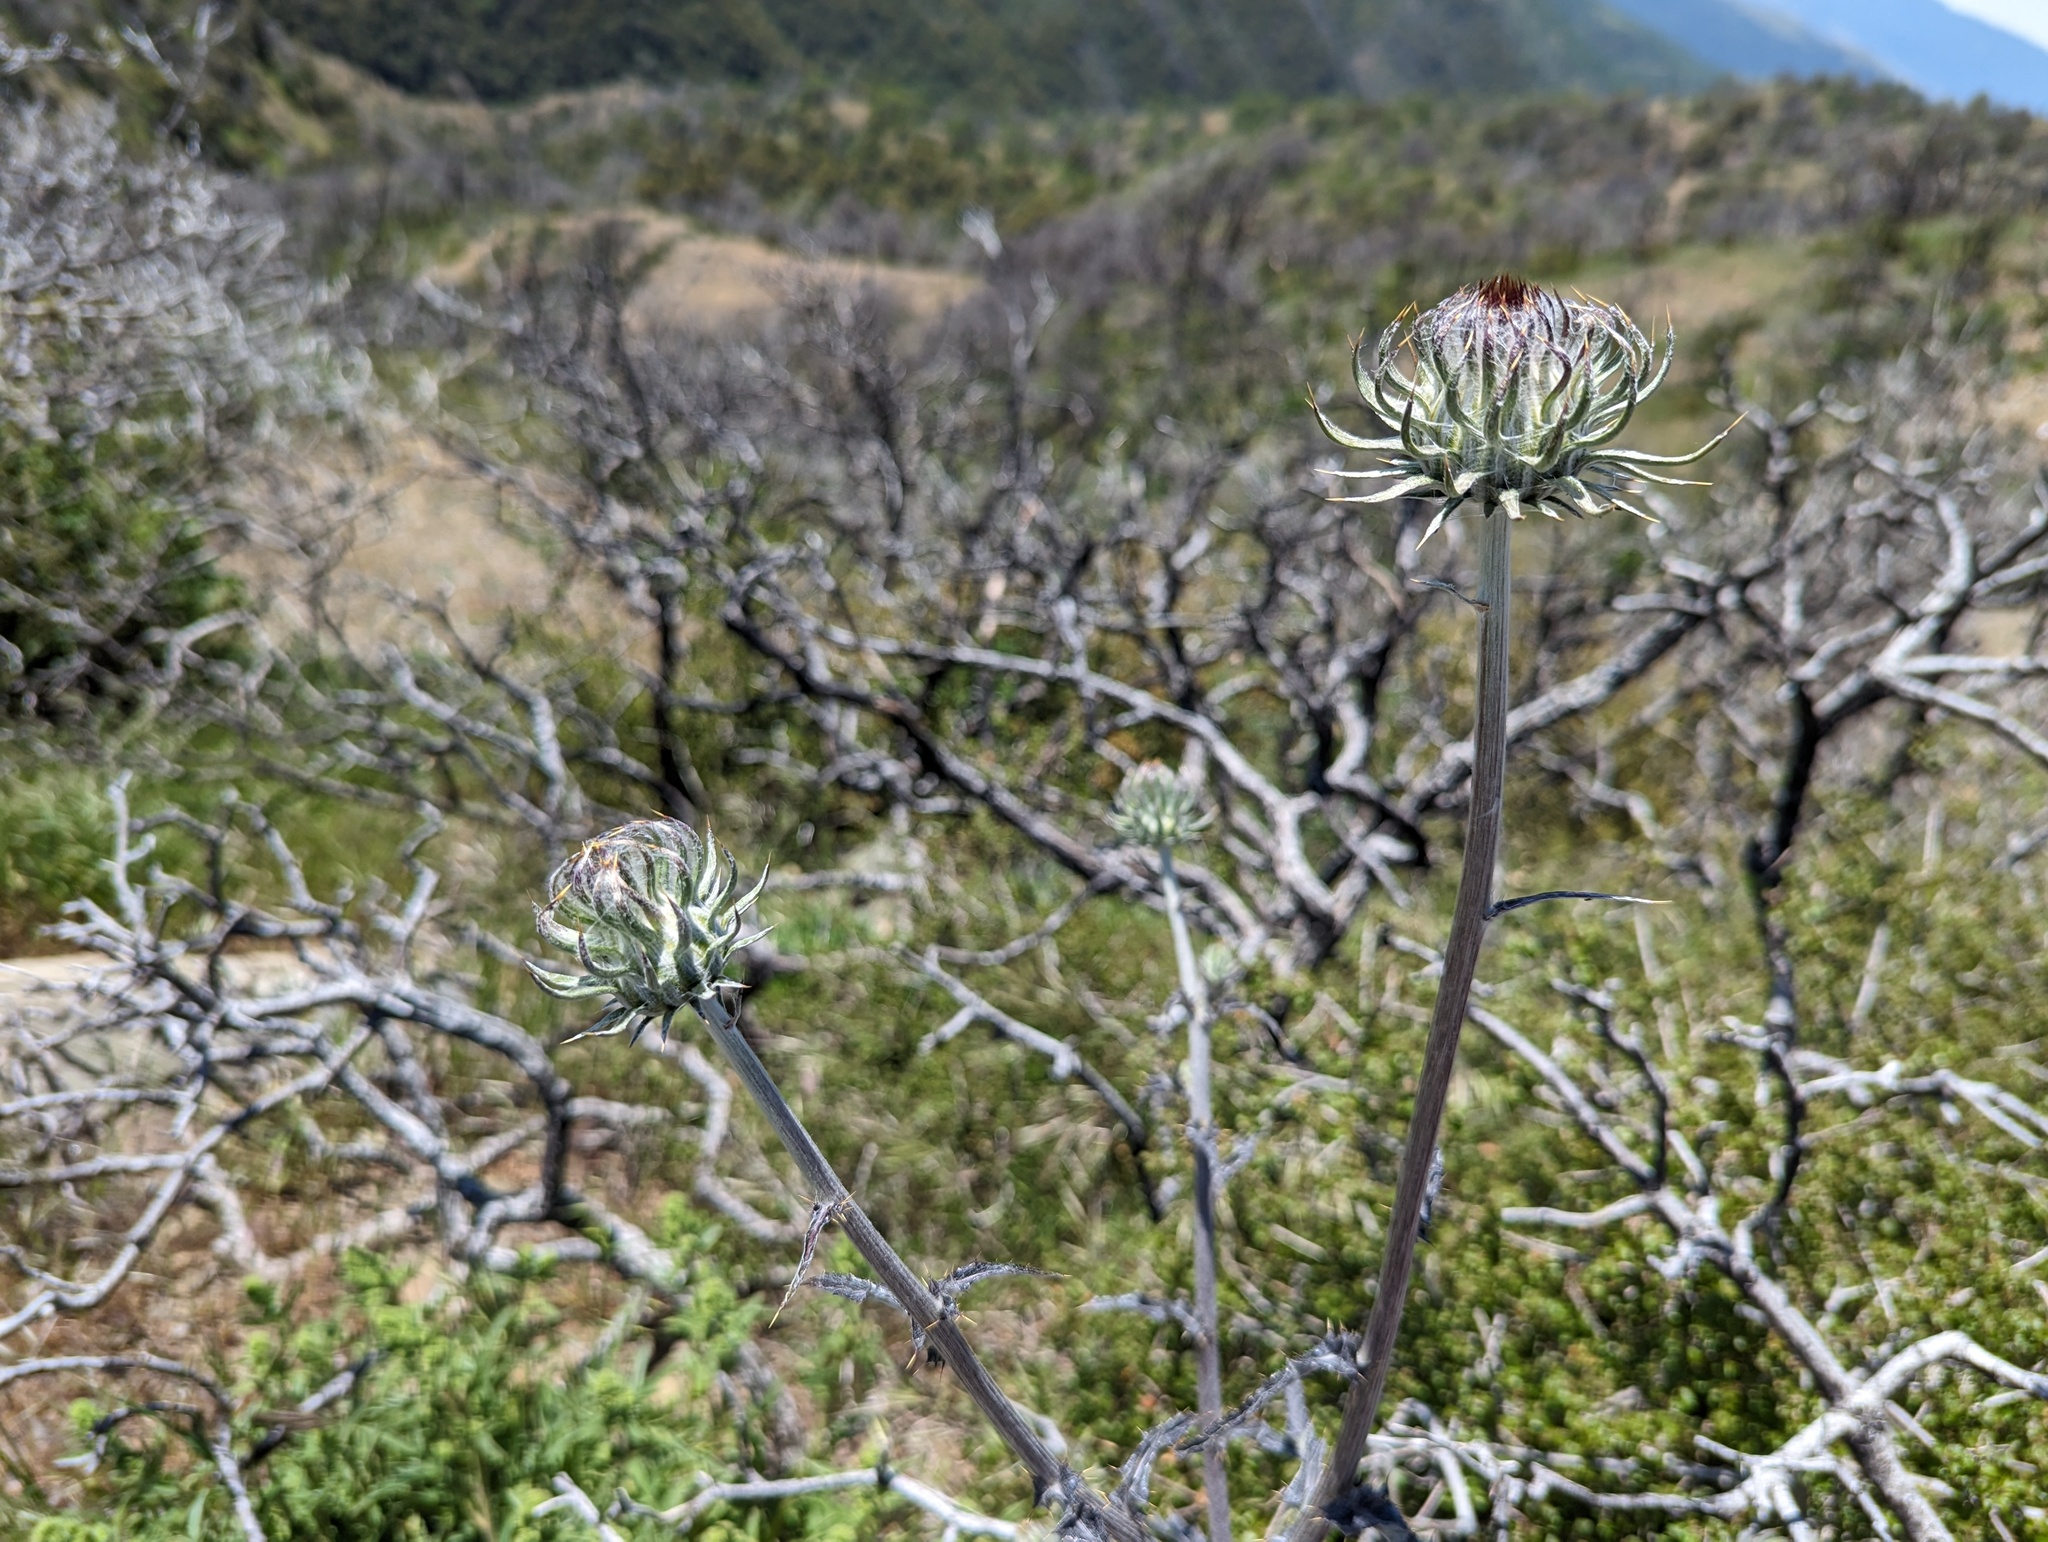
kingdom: Plantae
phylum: Tracheophyta
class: Magnoliopsida
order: Asterales
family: Asteraceae
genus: Cirsium
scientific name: Cirsium occidentale
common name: Western thistle
